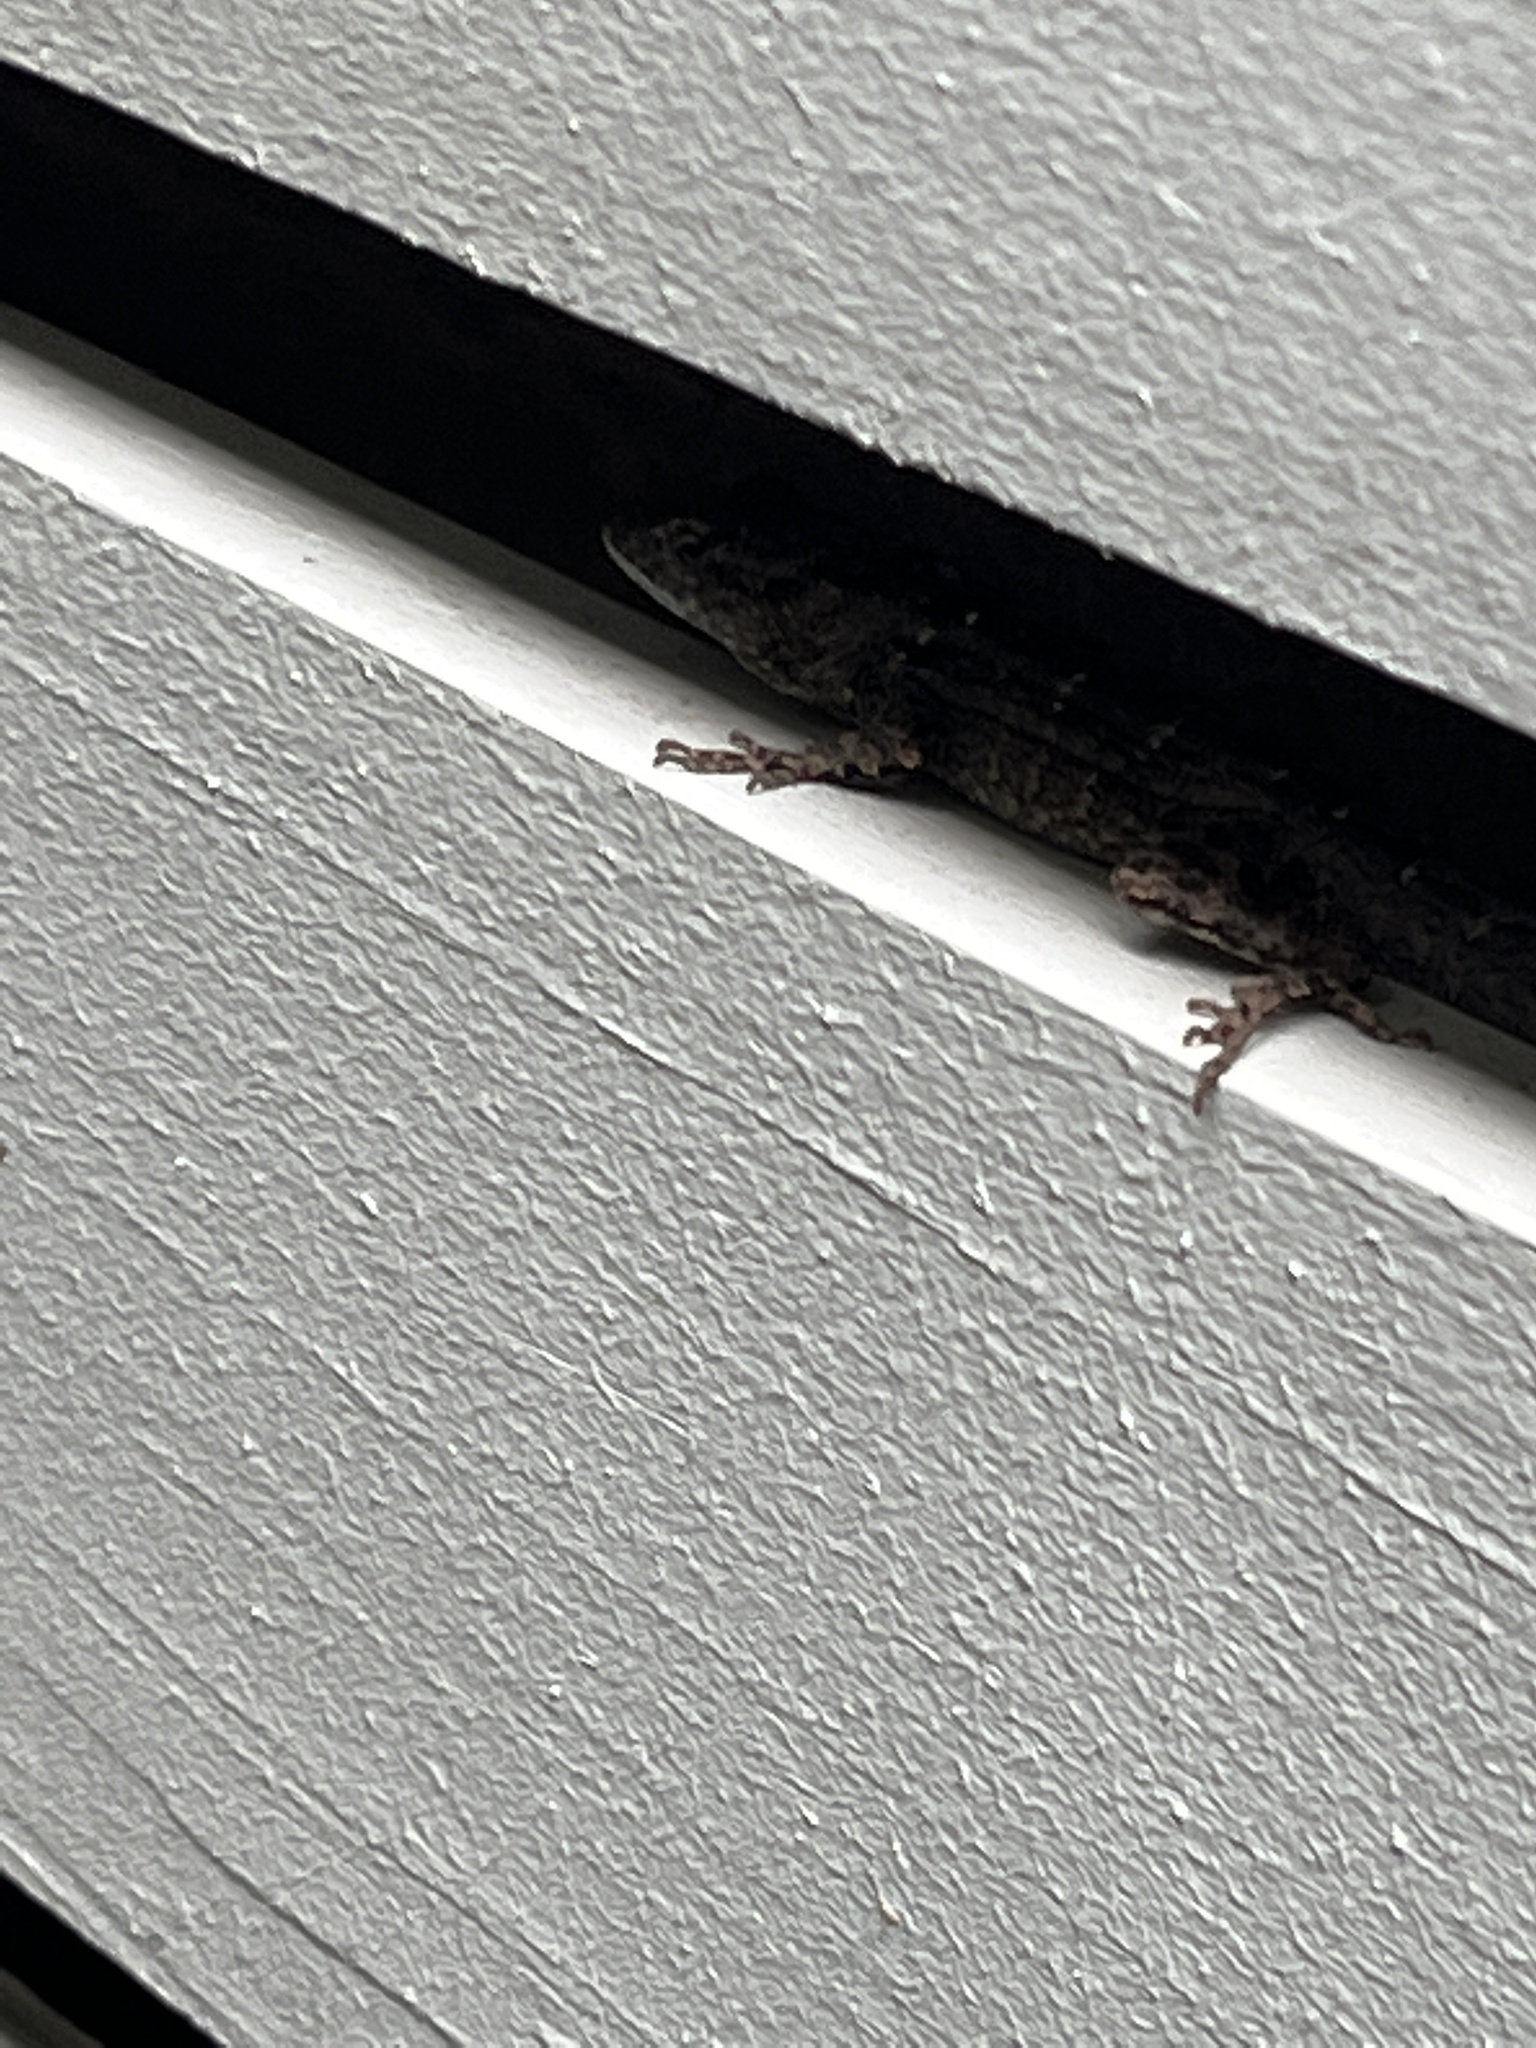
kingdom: Animalia
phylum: Chordata
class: Squamata
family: Dactyloidae
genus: Anolis
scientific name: Anolis sagrei
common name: Brown anole
